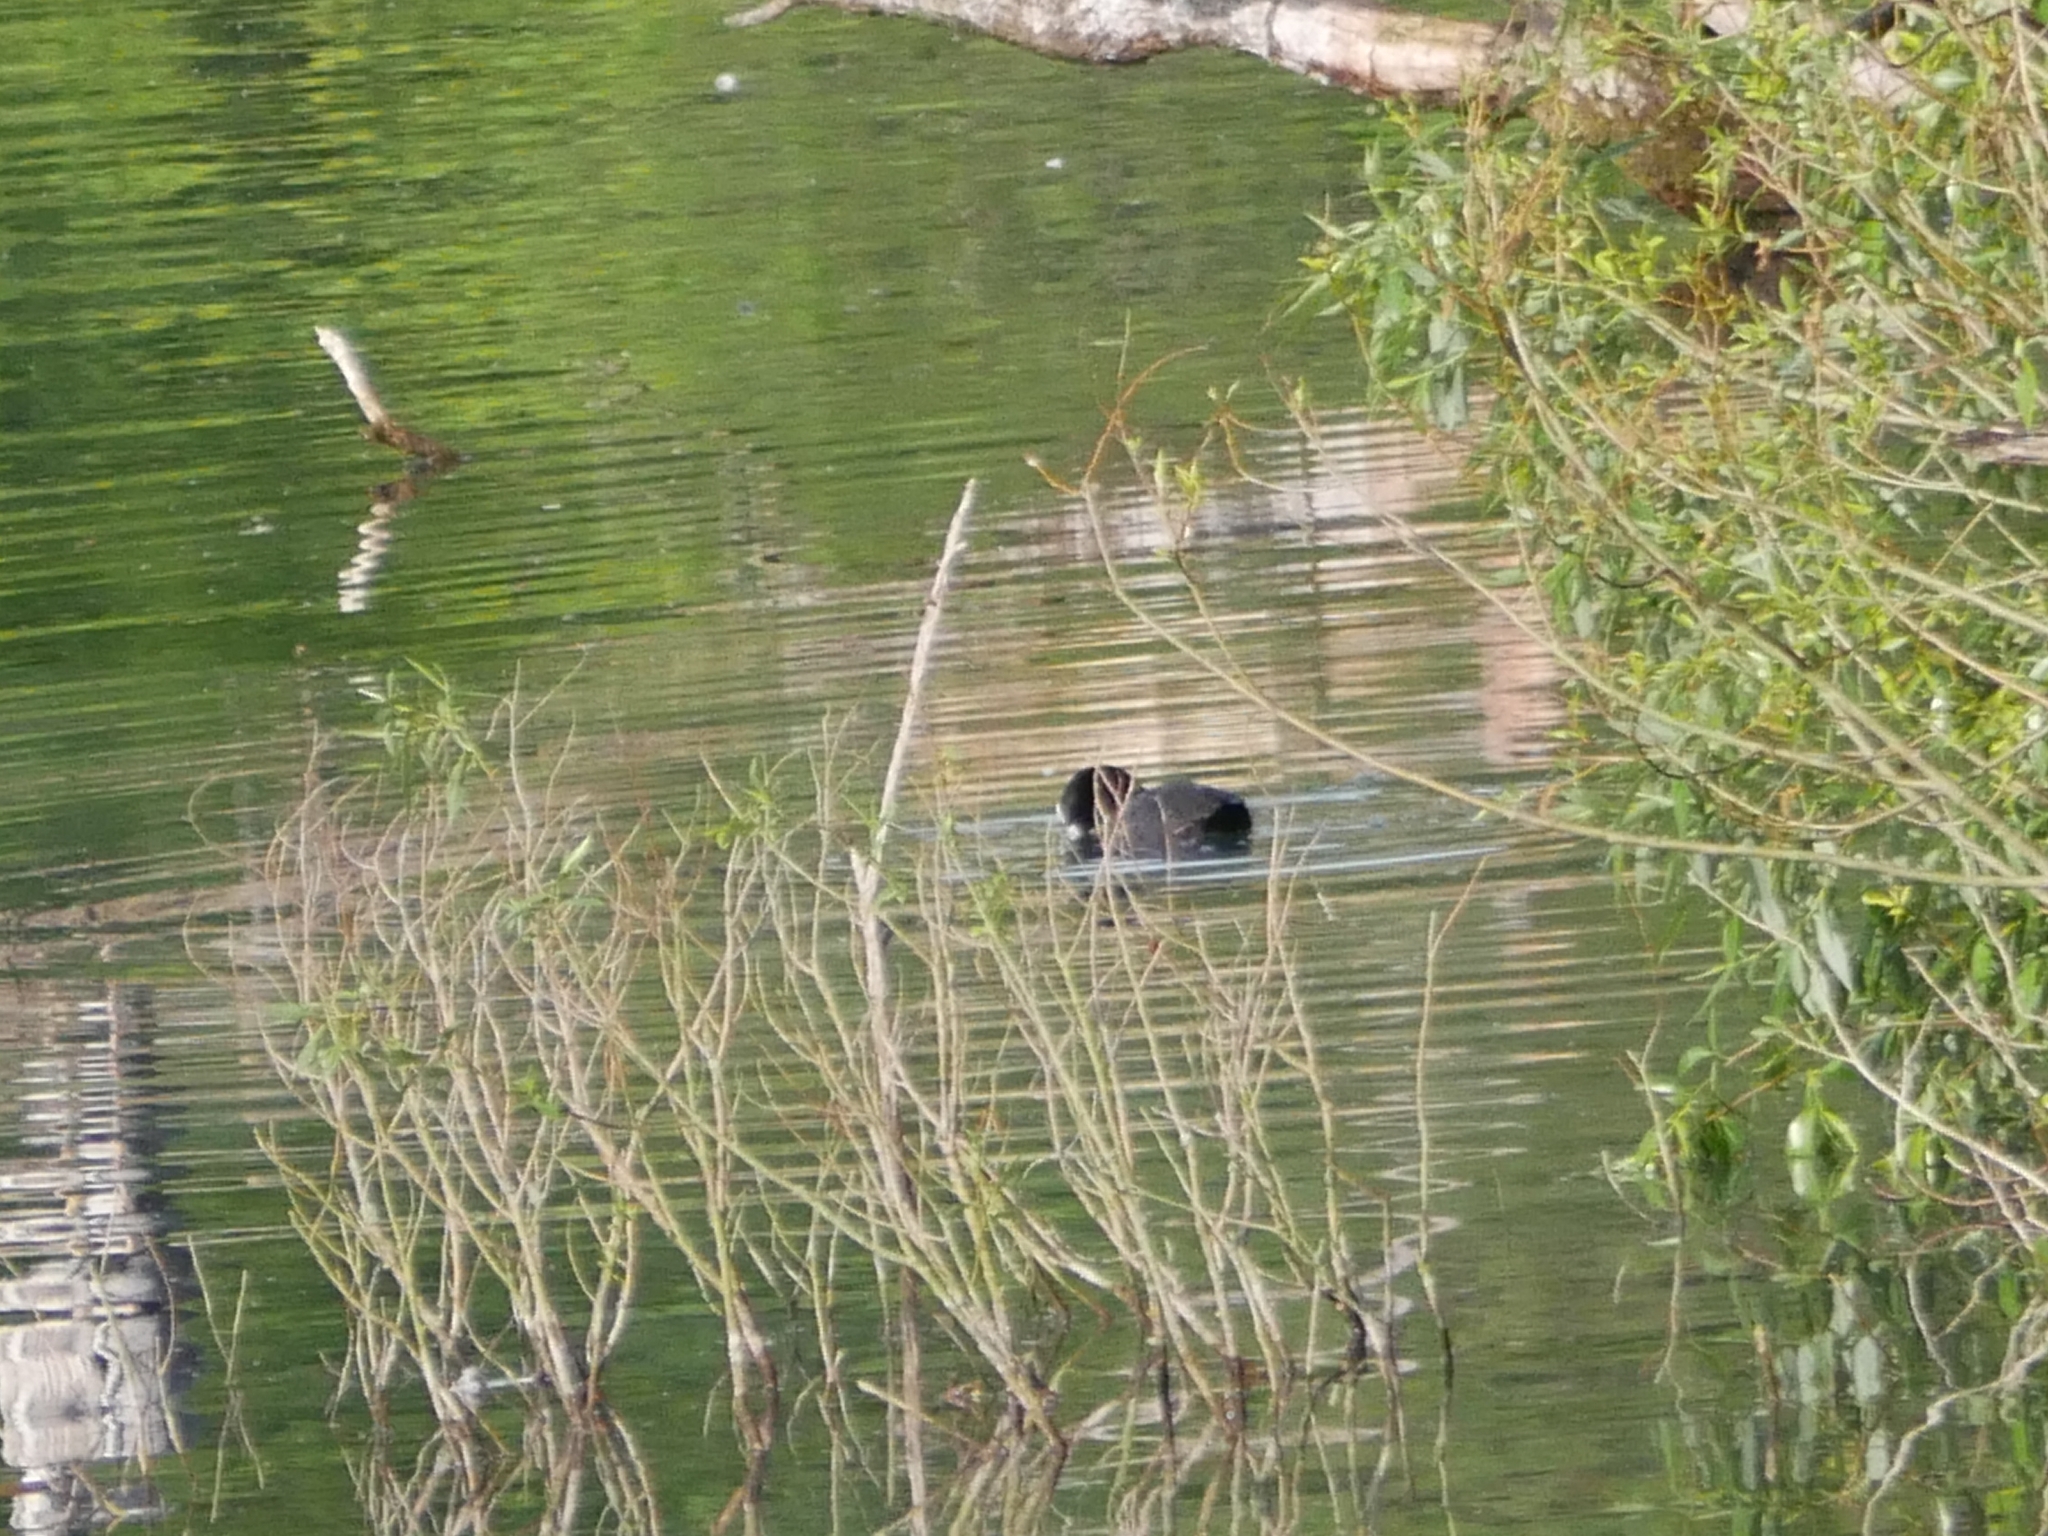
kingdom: Animalia
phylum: Chordata
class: Aves
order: Gruiformes
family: Rallidae
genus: Fulica
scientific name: Fulica atra
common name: Eurasian coot
